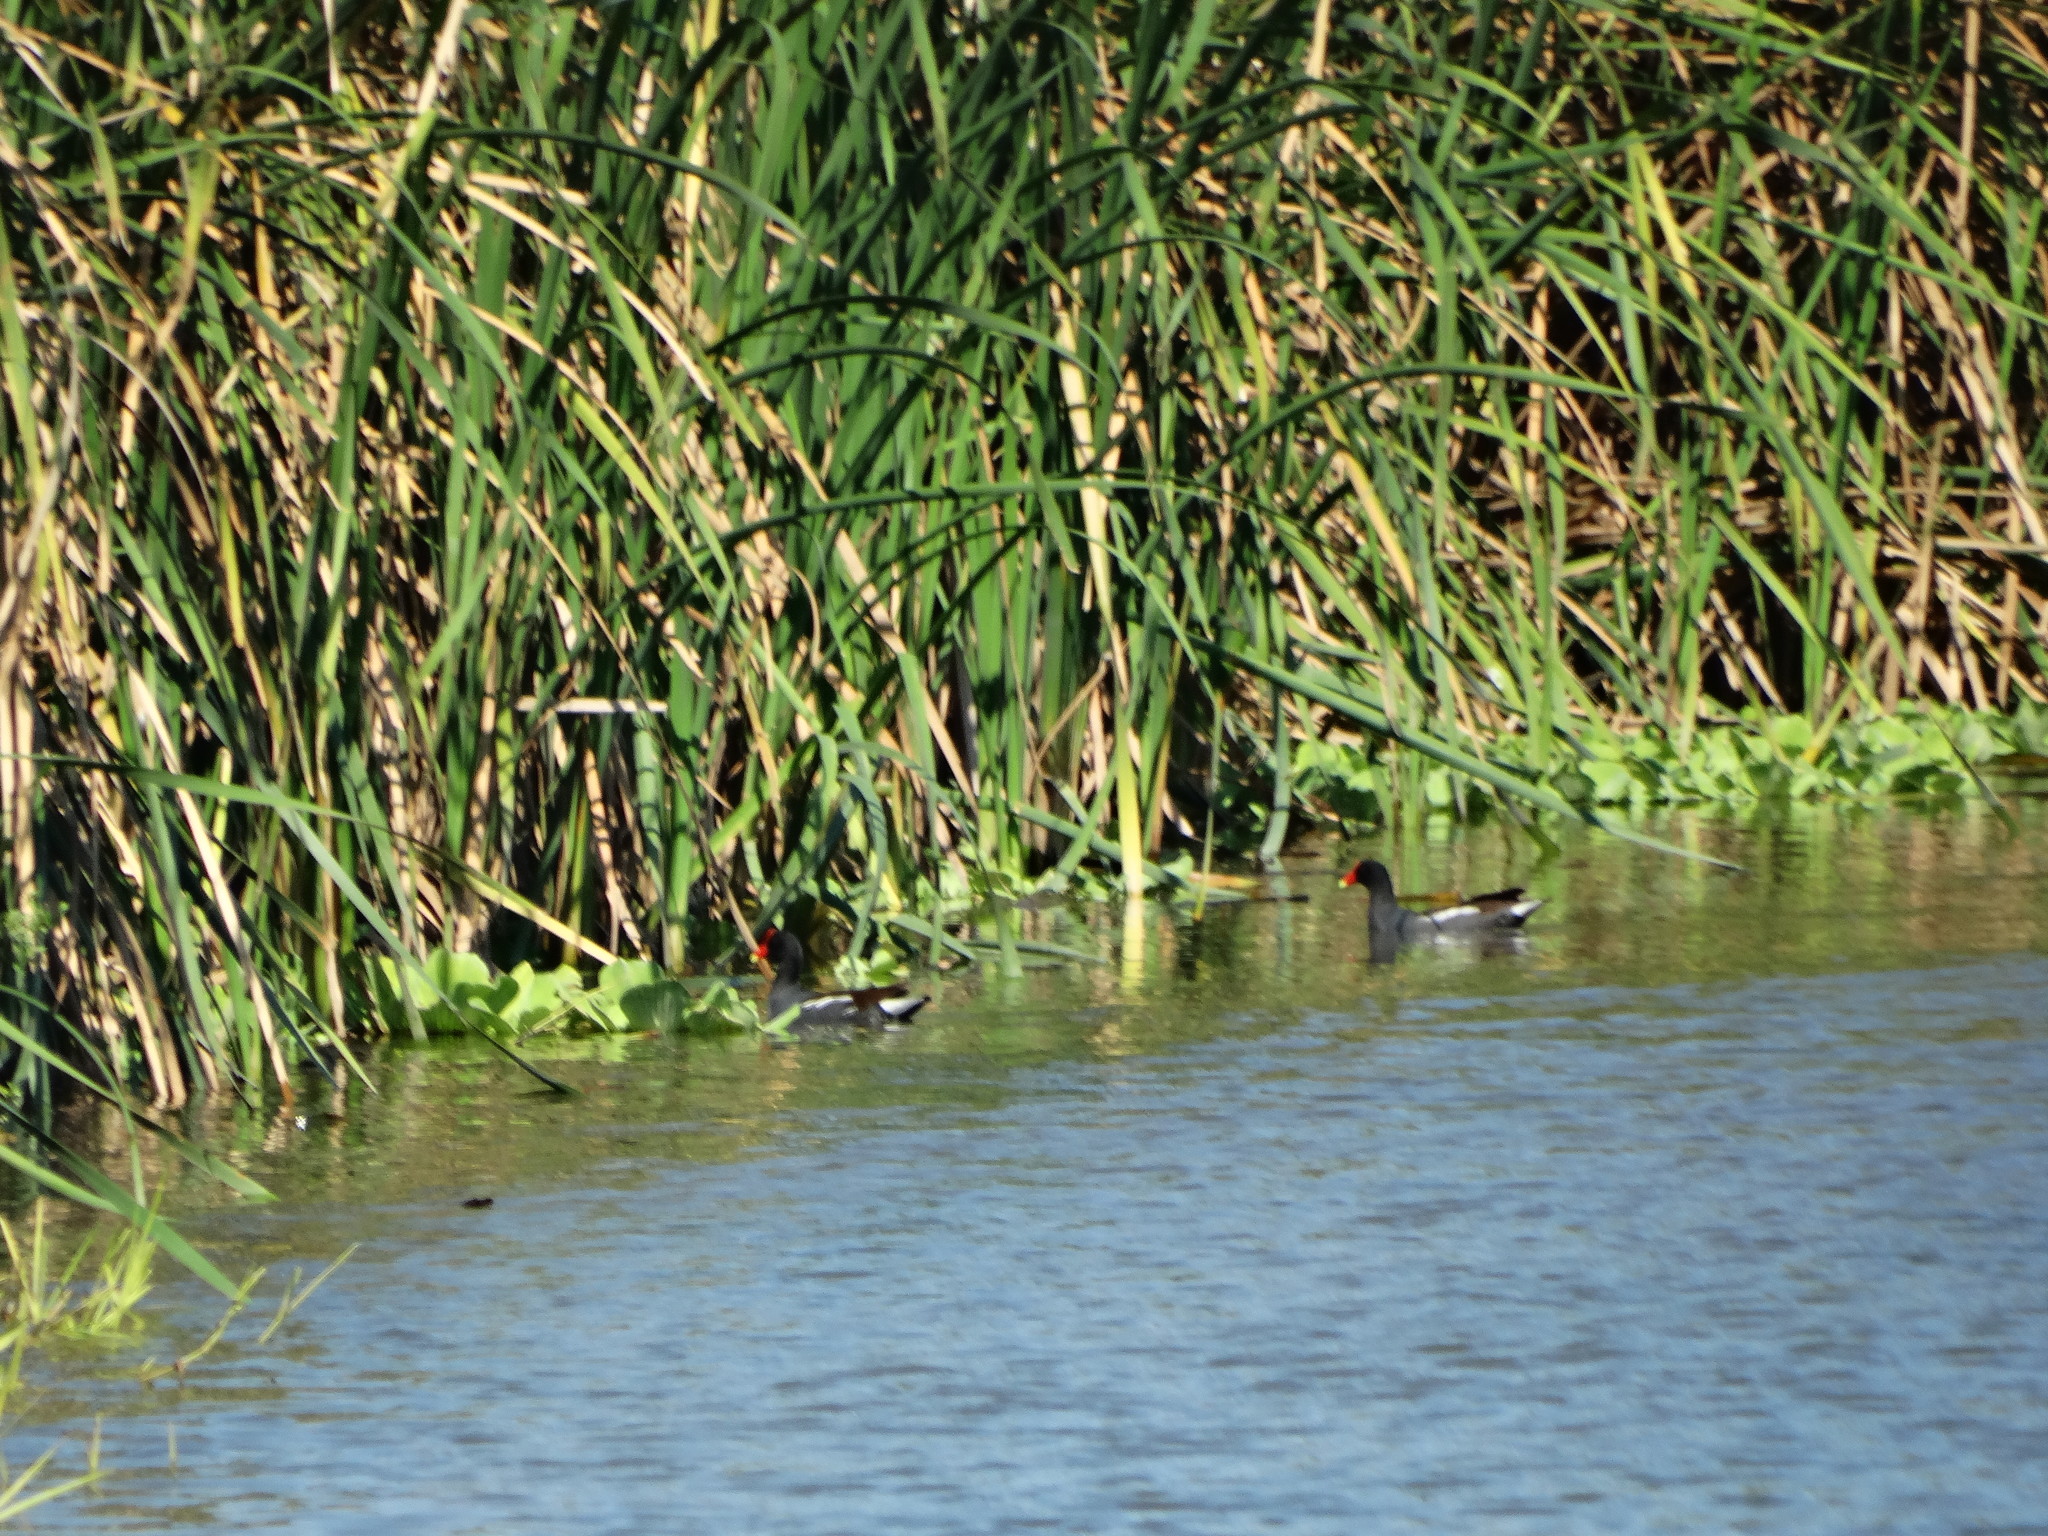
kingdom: Animalia
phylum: Chordata
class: Aves
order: Gruiformes
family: Rallidae
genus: Gallinula
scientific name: Gallinula chloropus
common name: Common moorhen
